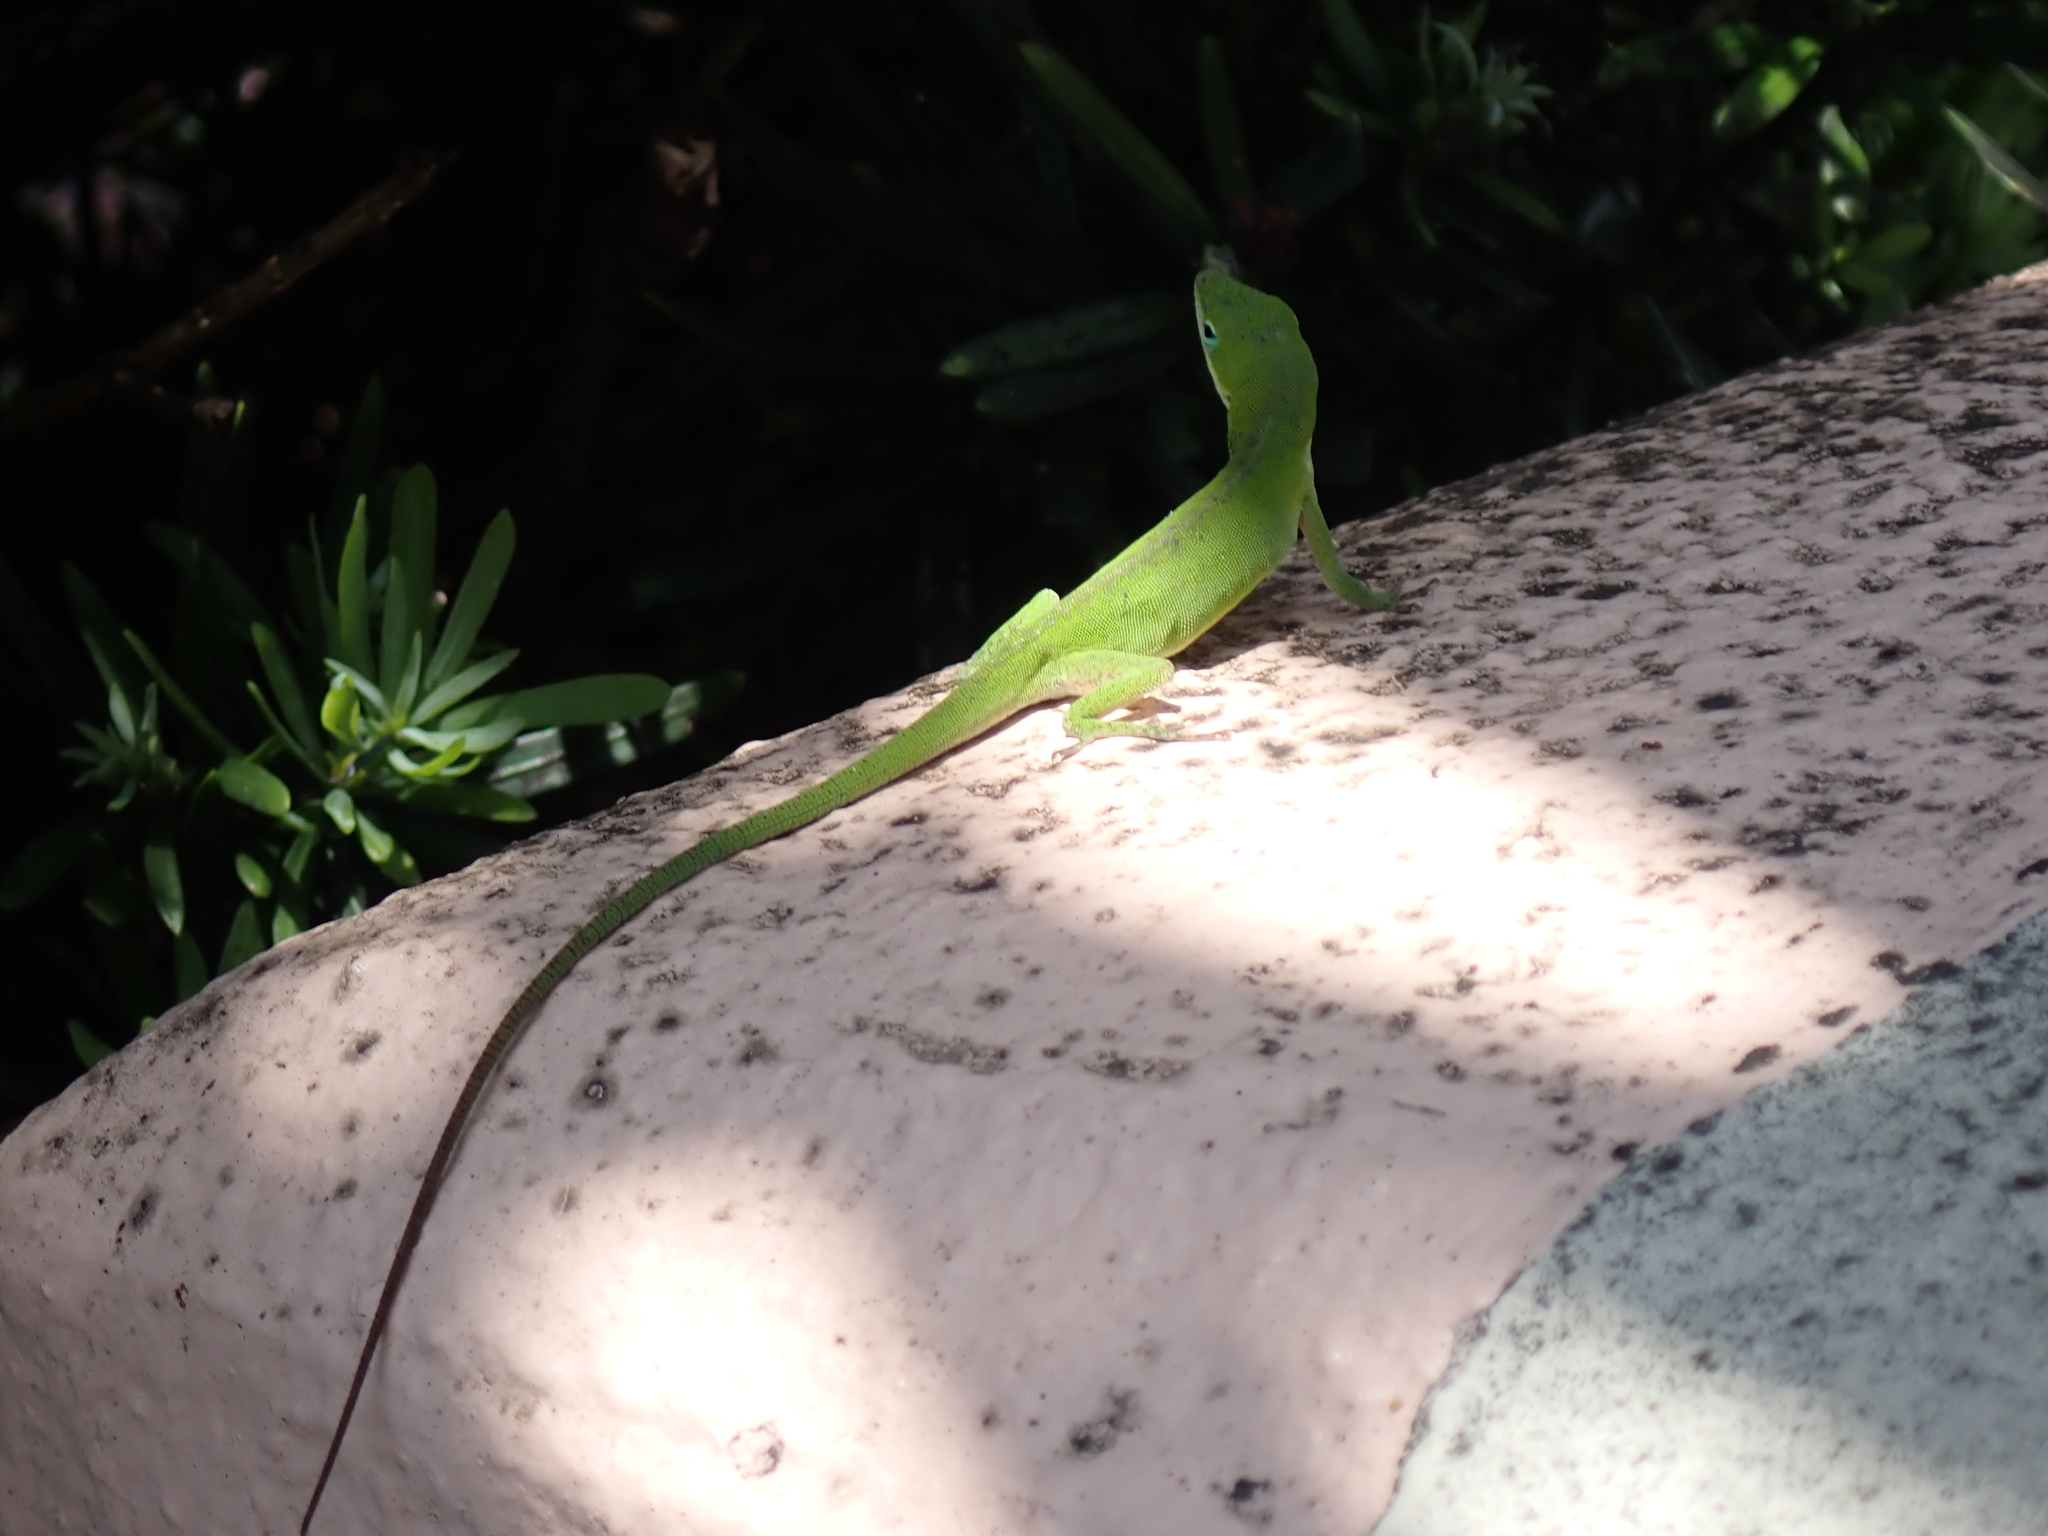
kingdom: Animalia
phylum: Chordata
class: Squamata
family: Dactyloidae
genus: Anolis
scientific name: Anolis carolinensis
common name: Green anole
